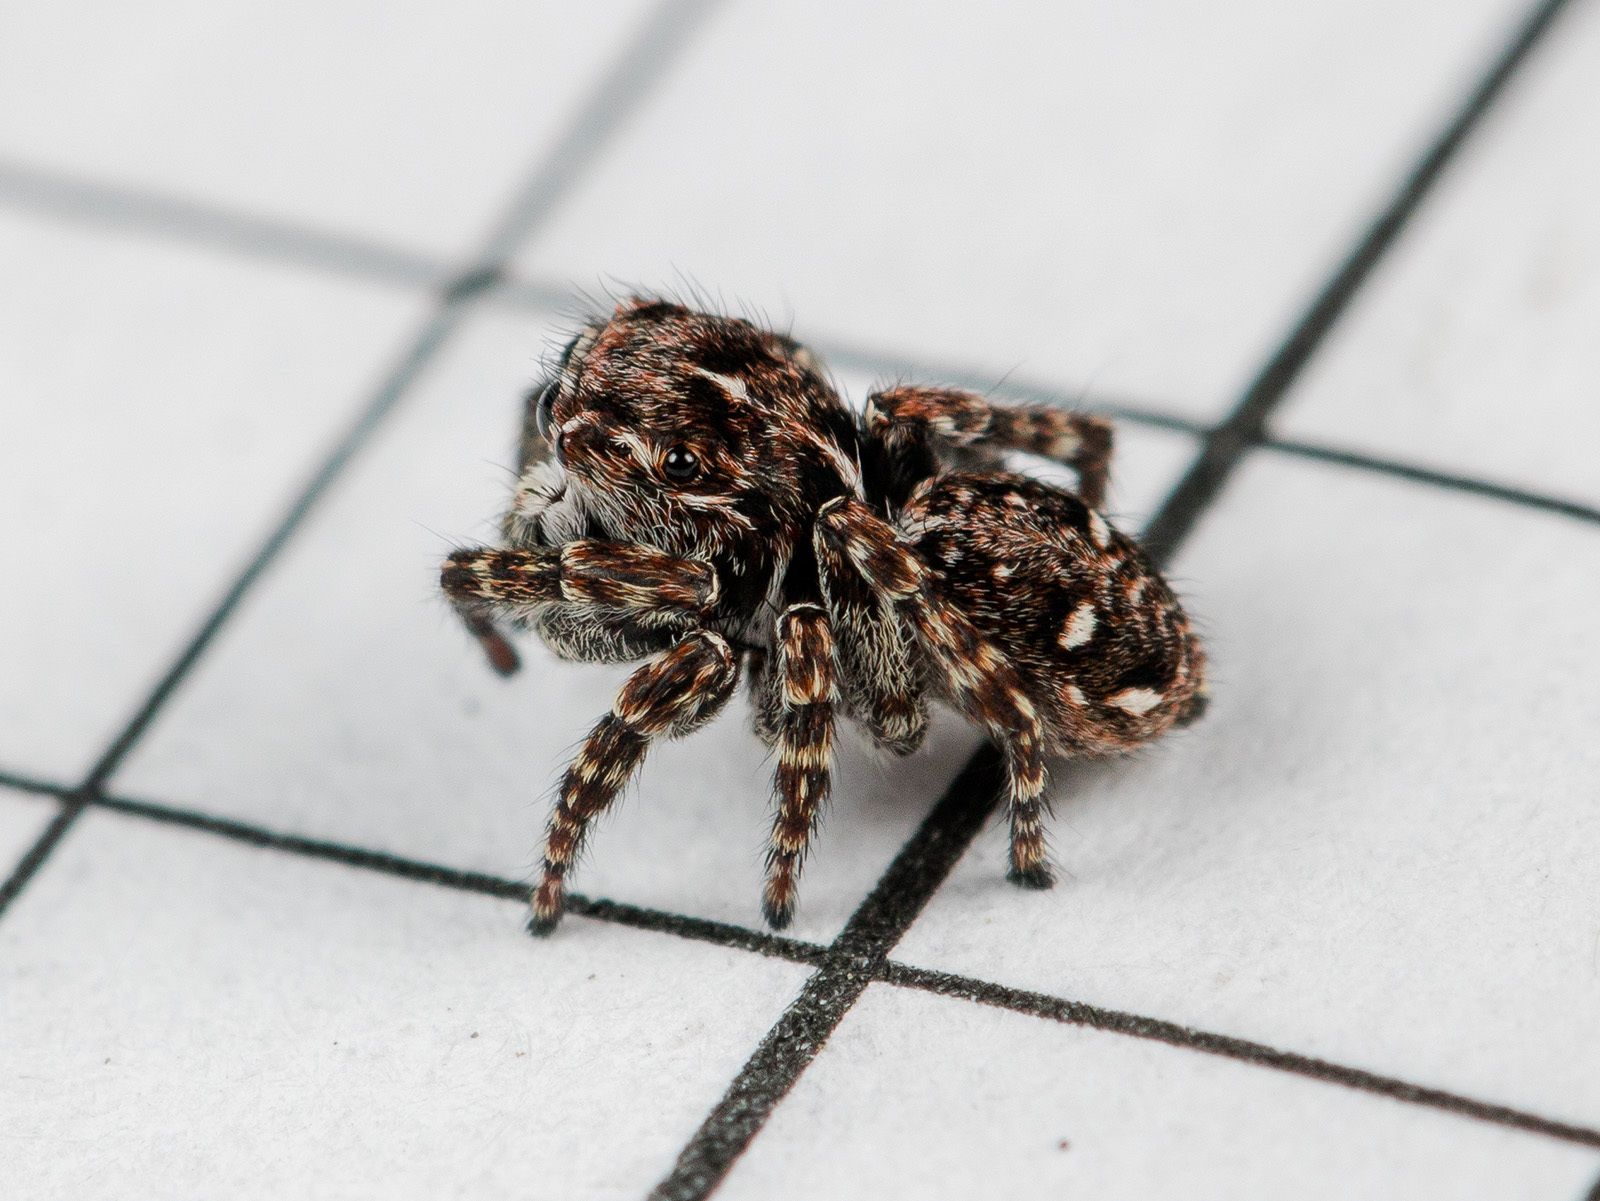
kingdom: Animalia
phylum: Arthropoda
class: Arachnida
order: Araneae
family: Salticidae
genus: Attulus
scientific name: Attulus inexpectus
